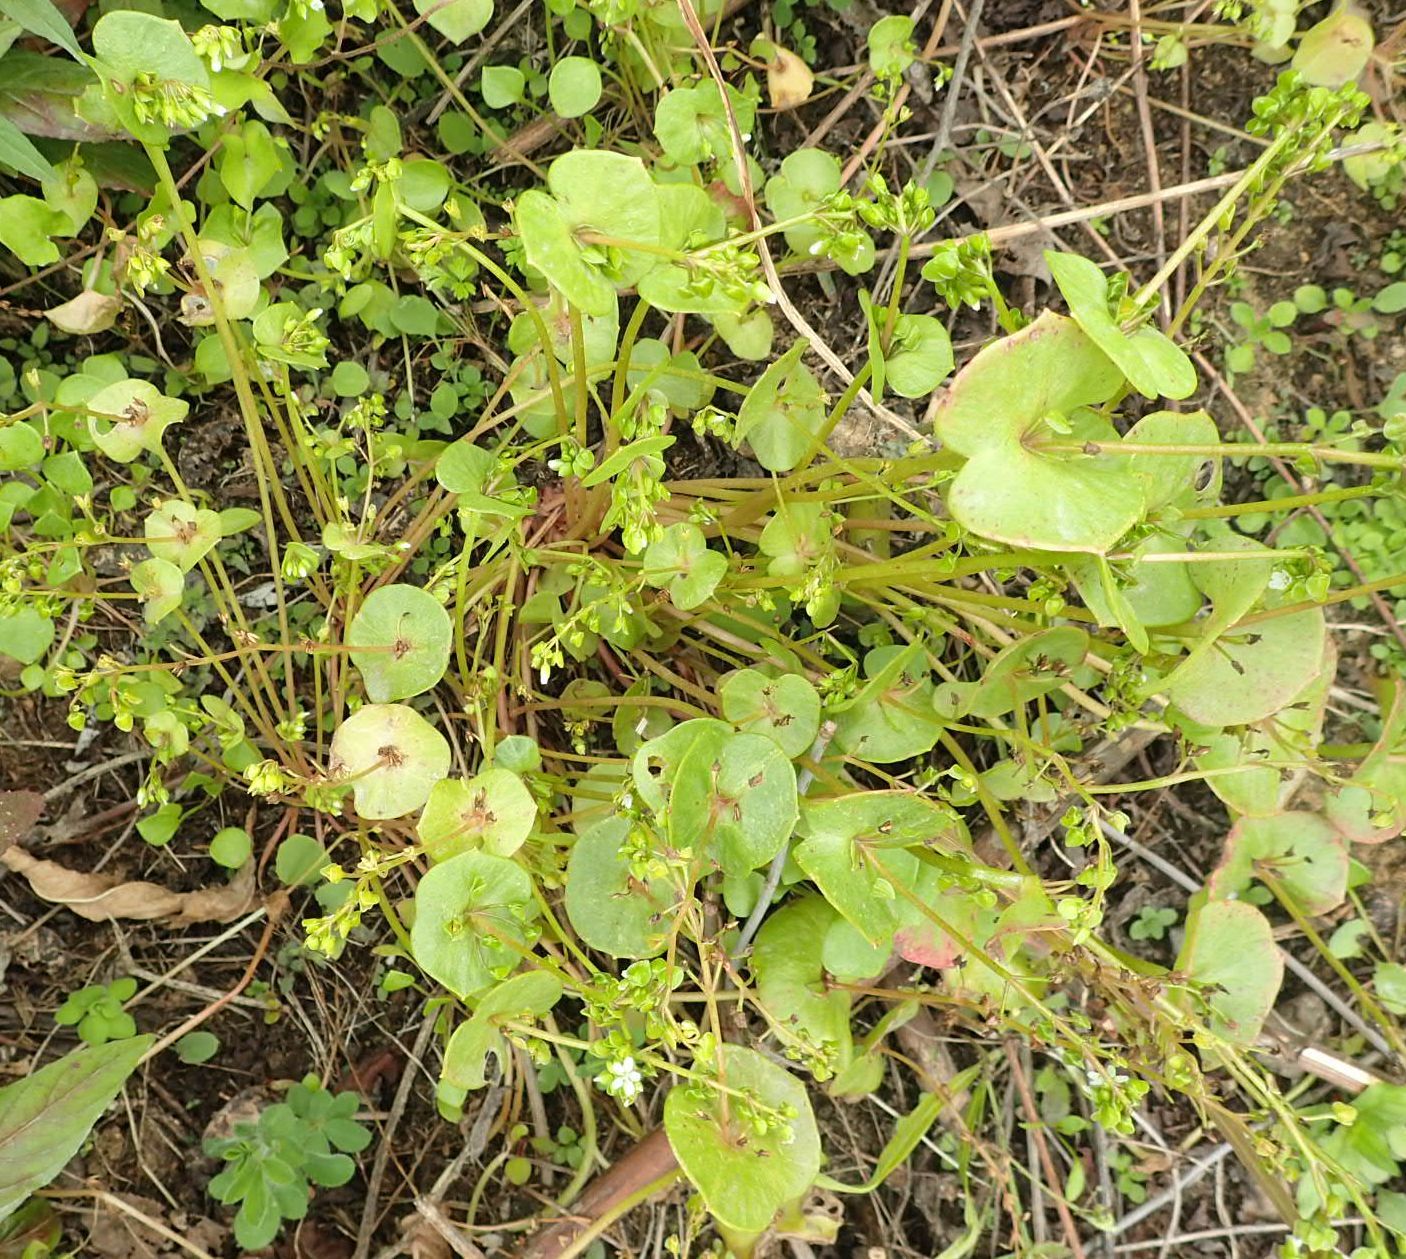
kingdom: Plantae
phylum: Tracheophyta
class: Magnoliopsida
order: Caryophyllales
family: Montiaceae
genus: Claytonia
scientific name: Claytonia perfoliata
